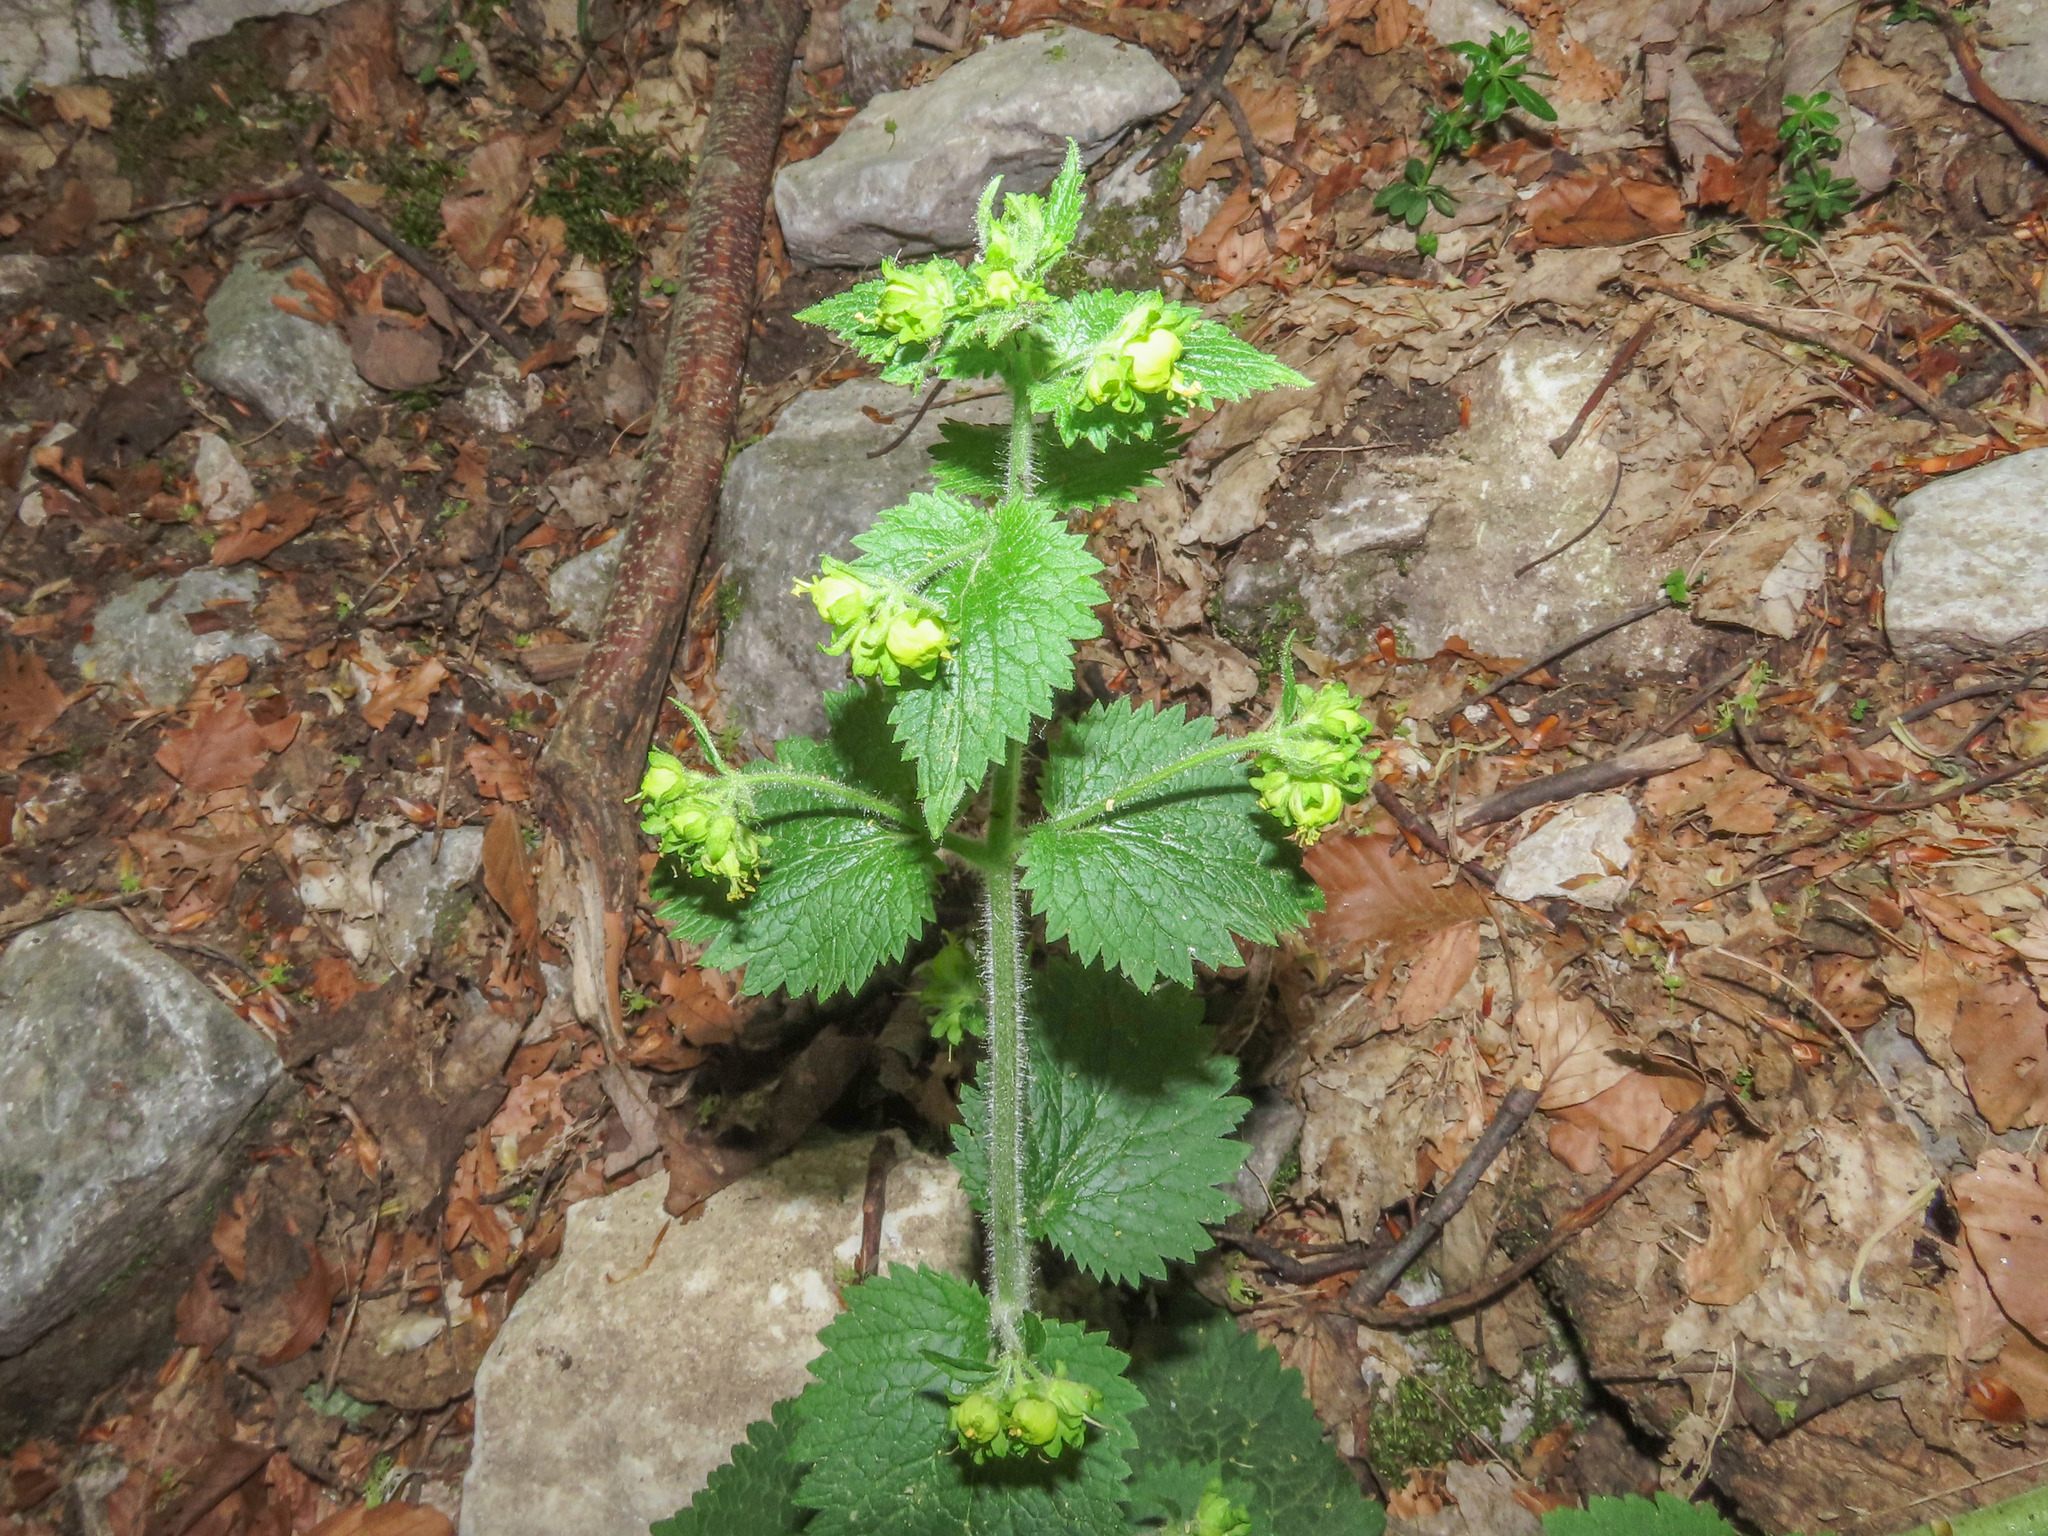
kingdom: Plantae
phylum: Tracheophyta
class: Magnoliopsida
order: Lamiales
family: Scrophulariaceae
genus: Scrophularia
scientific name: Scrophularia vernalis
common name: Yellow figwort
